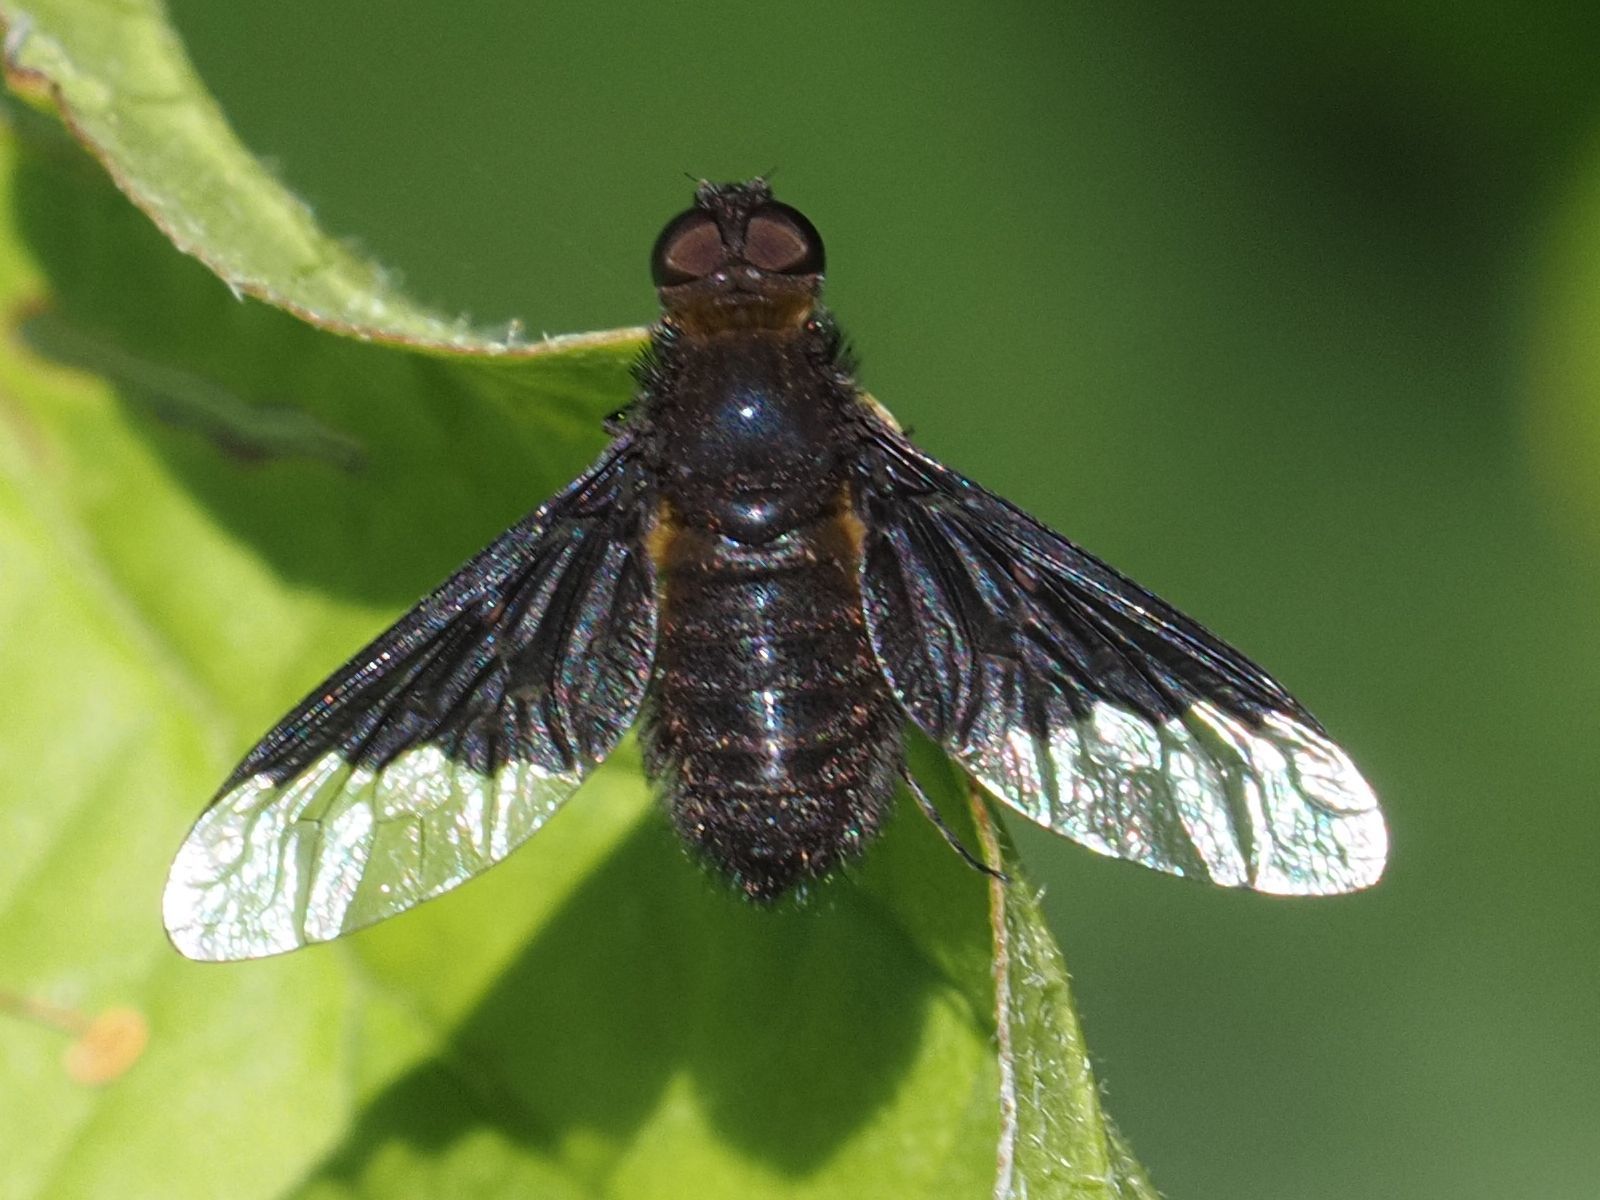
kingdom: Animalia
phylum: Arthropoda
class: Insecta
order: Diptera
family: Bombyliidae
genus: Hemipenthes
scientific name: Hemipenthes morio
